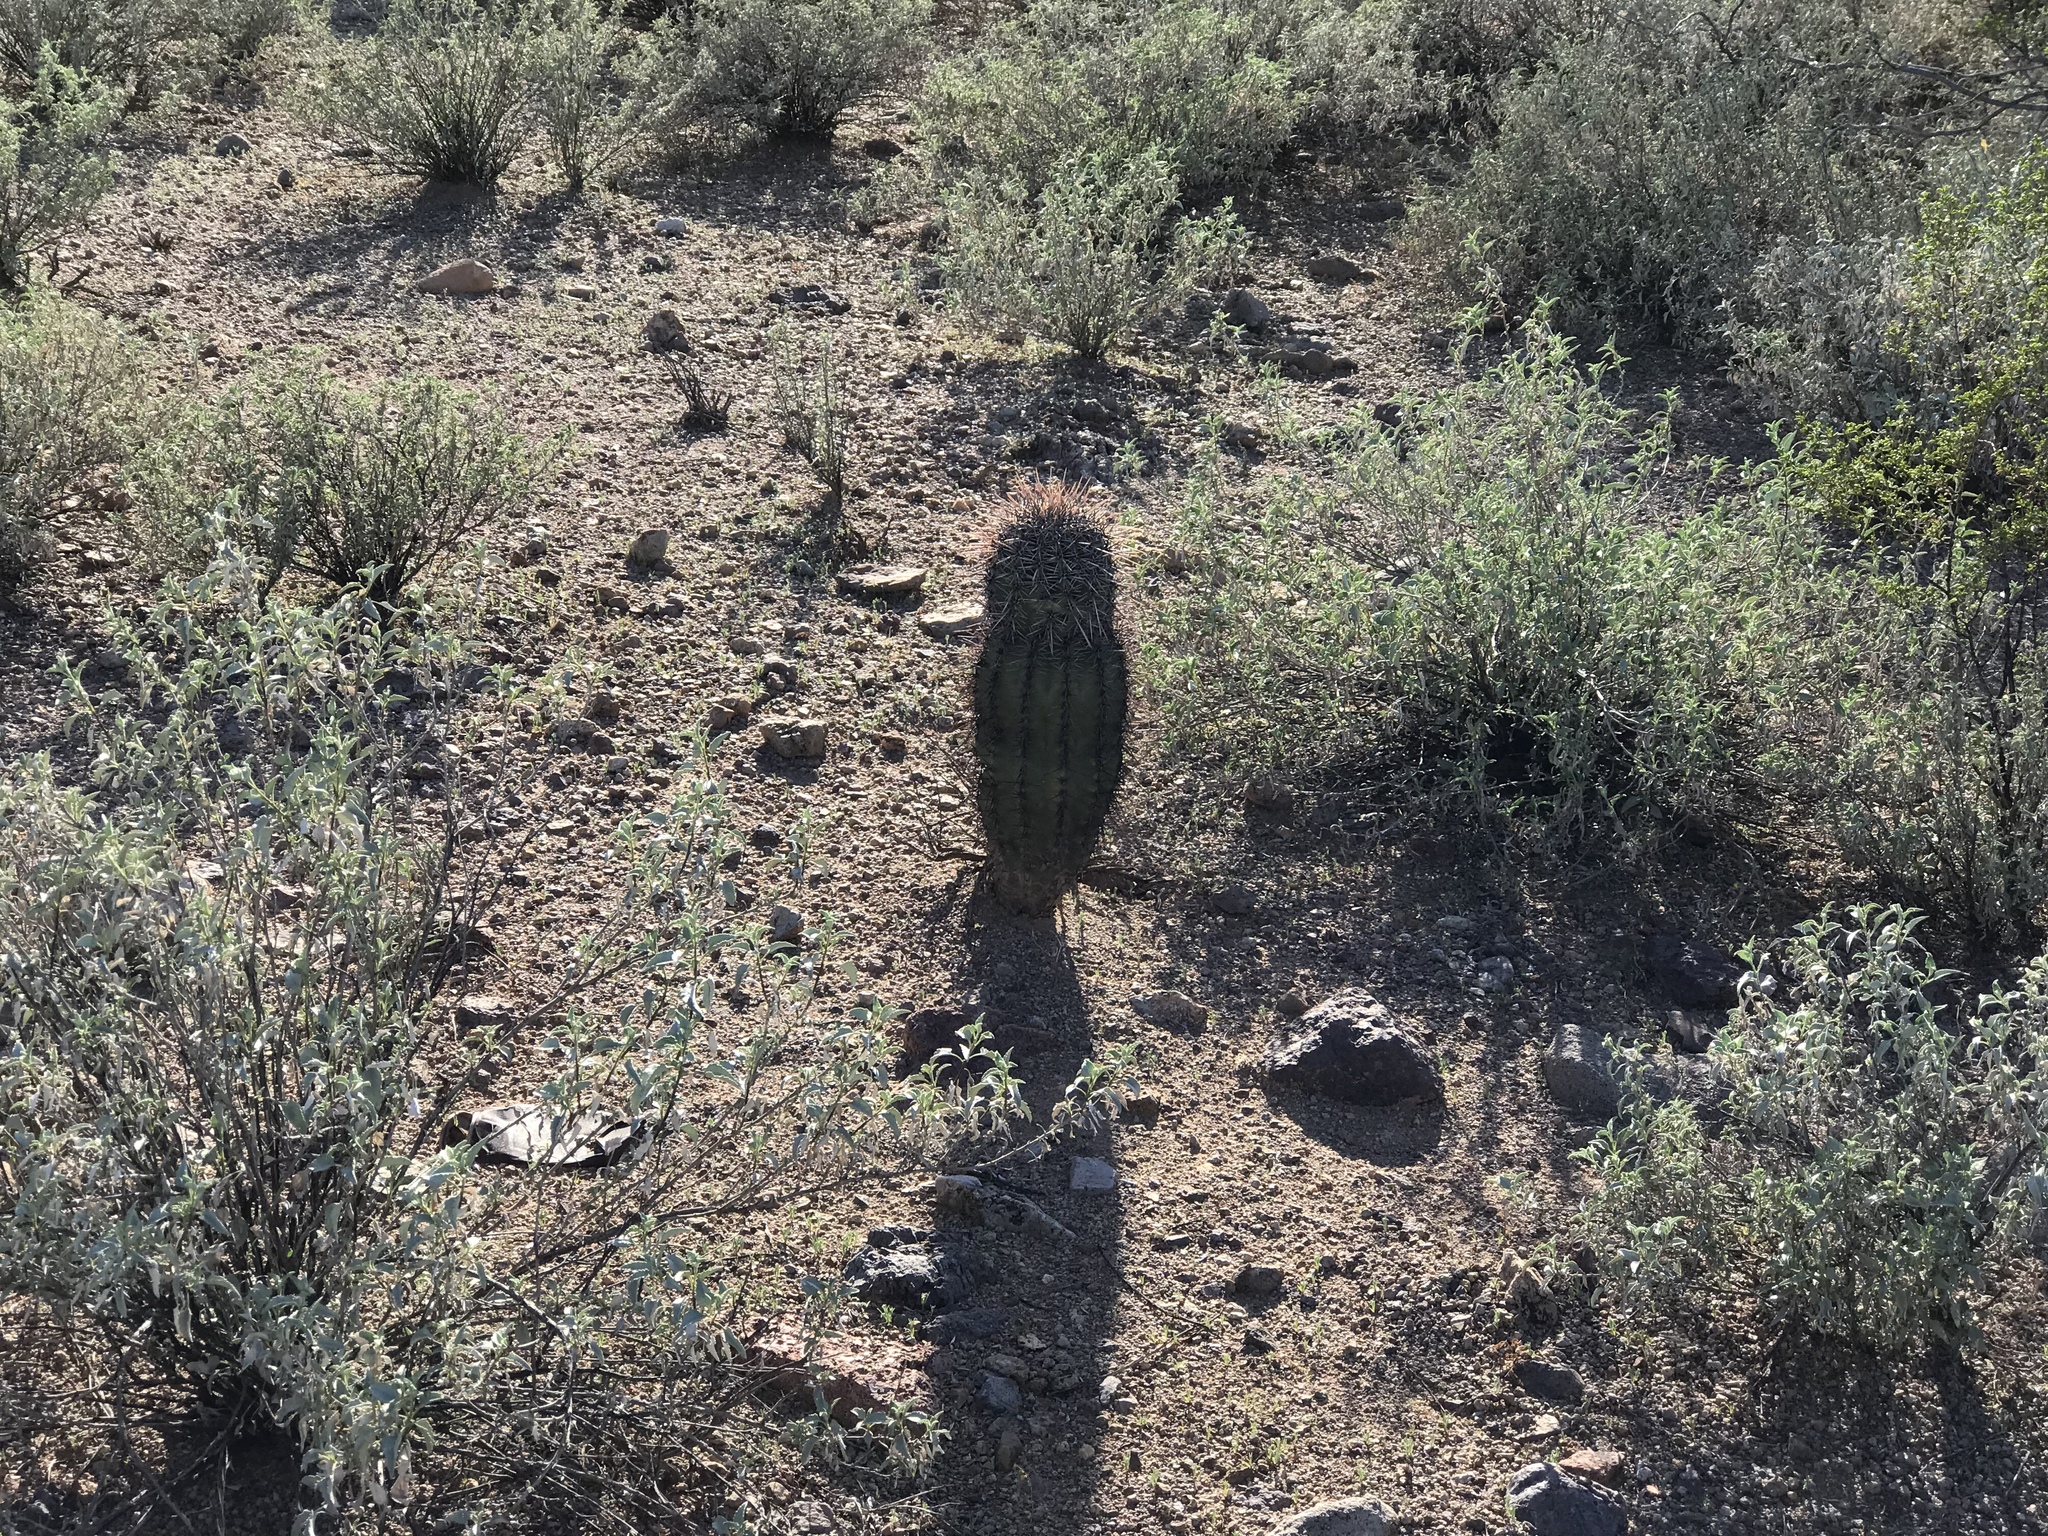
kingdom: Plantae
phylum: Tracheophyta
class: Magnoliopsida
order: Caryophyllales
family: Cactaceae
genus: Carnegiea
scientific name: Carnegiea gigantea
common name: Saguaro
